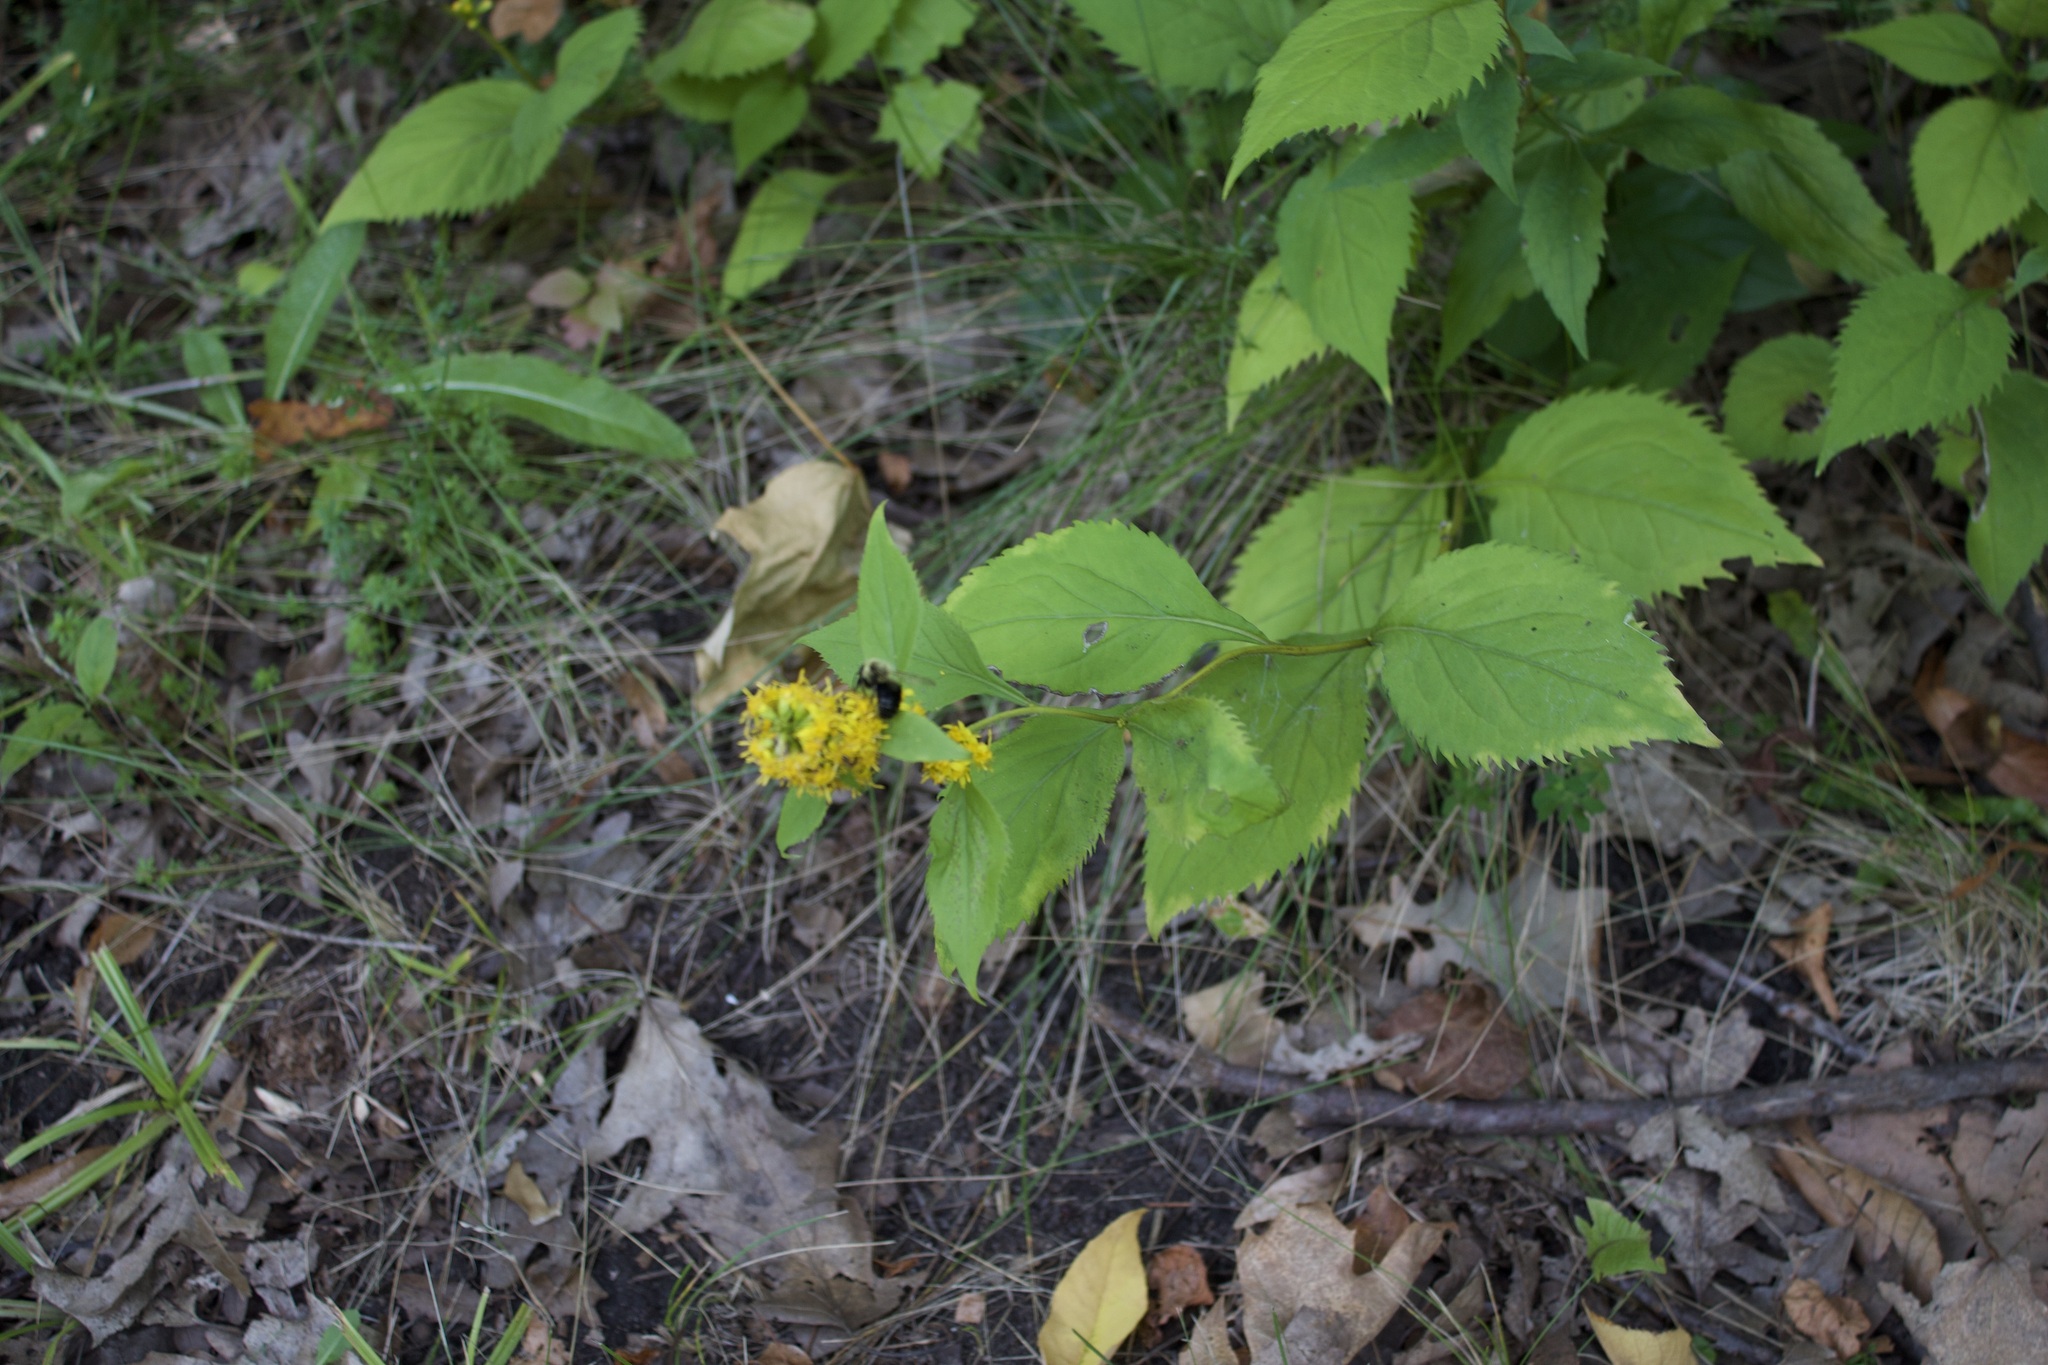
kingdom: Animalia
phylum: Arthropoda
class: Insecta
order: Hymenoptera
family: Apidae
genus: Bombus
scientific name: Bombus impatiens
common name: Common eastern bumble bee
